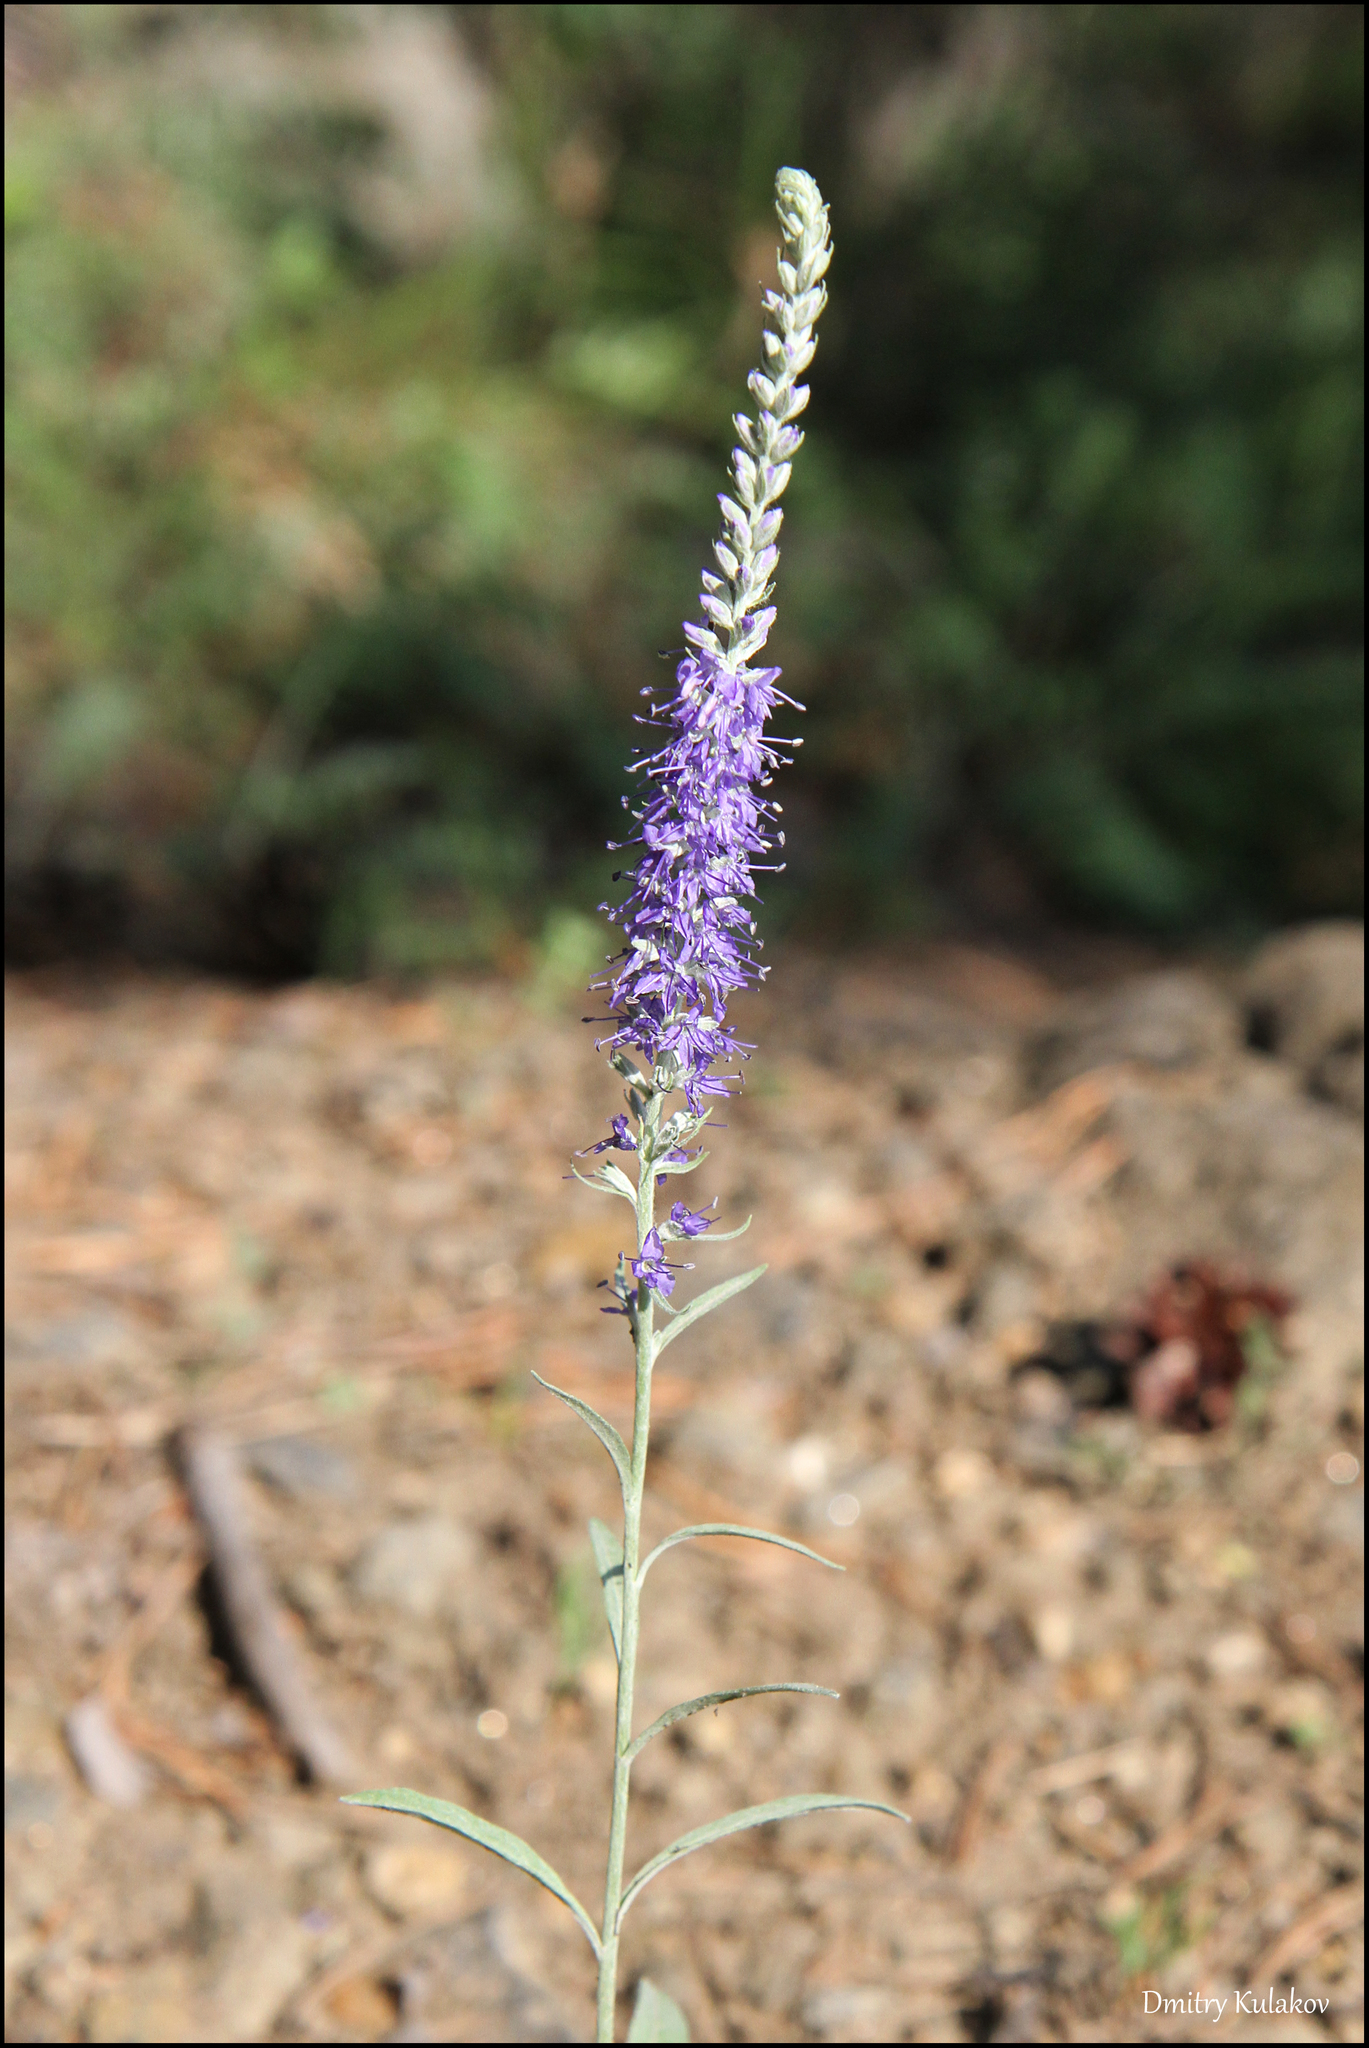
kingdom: Plantae
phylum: Tracheophyta
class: Magnoliopsida
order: Lamiales
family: Plantaginaceae
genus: Veronica
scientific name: Veronica incana
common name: Silver speedwell
